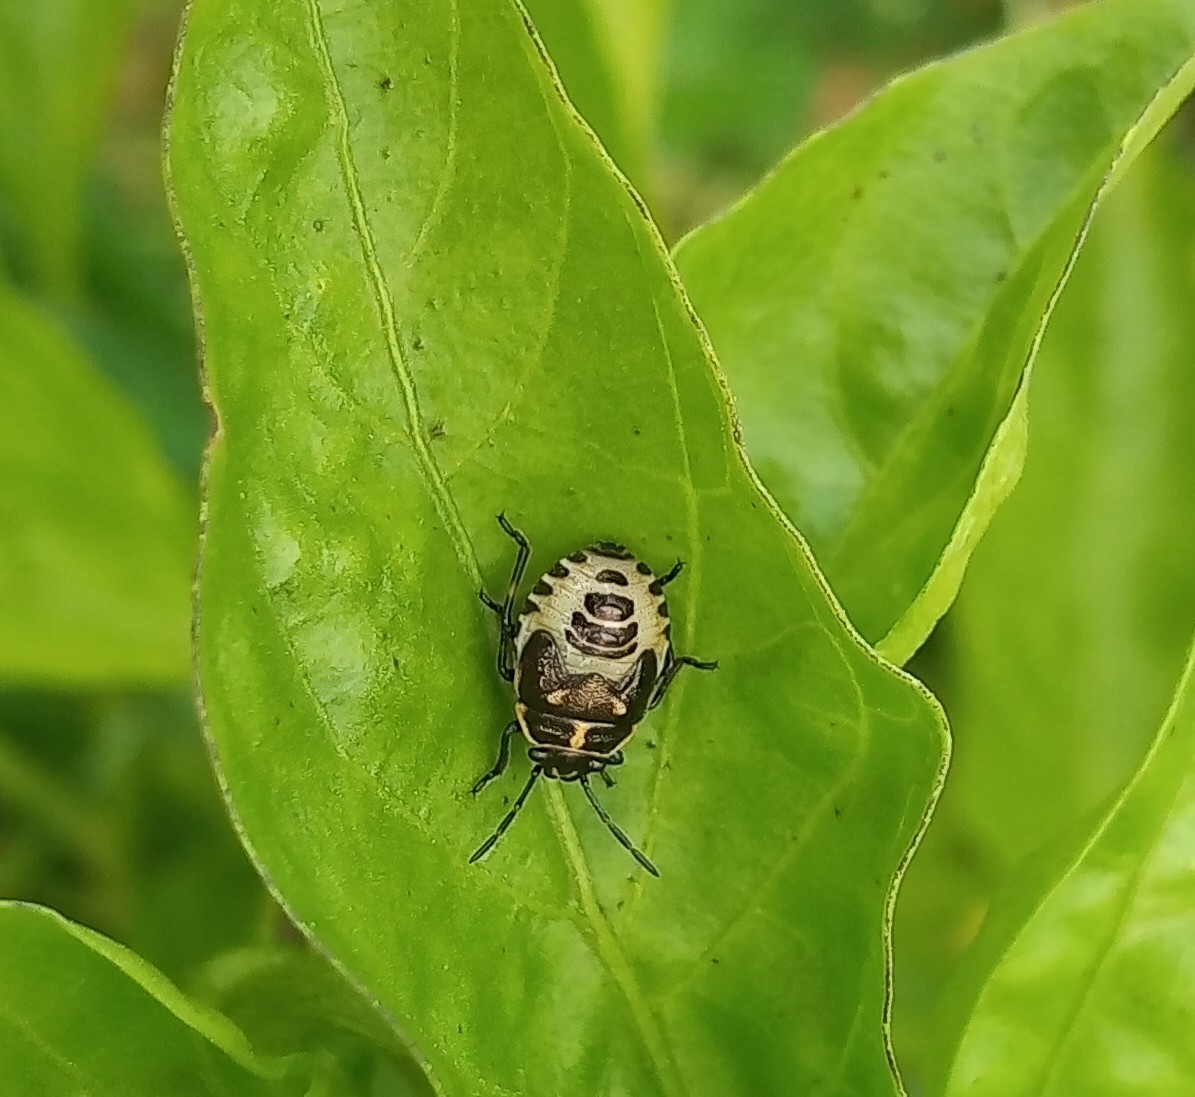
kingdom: Animalia
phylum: Arthropoda
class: Insecta
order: Hemiptera
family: Pentatomidae
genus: Eurydema
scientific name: Eurydema oleracea
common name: Cabbage bug
